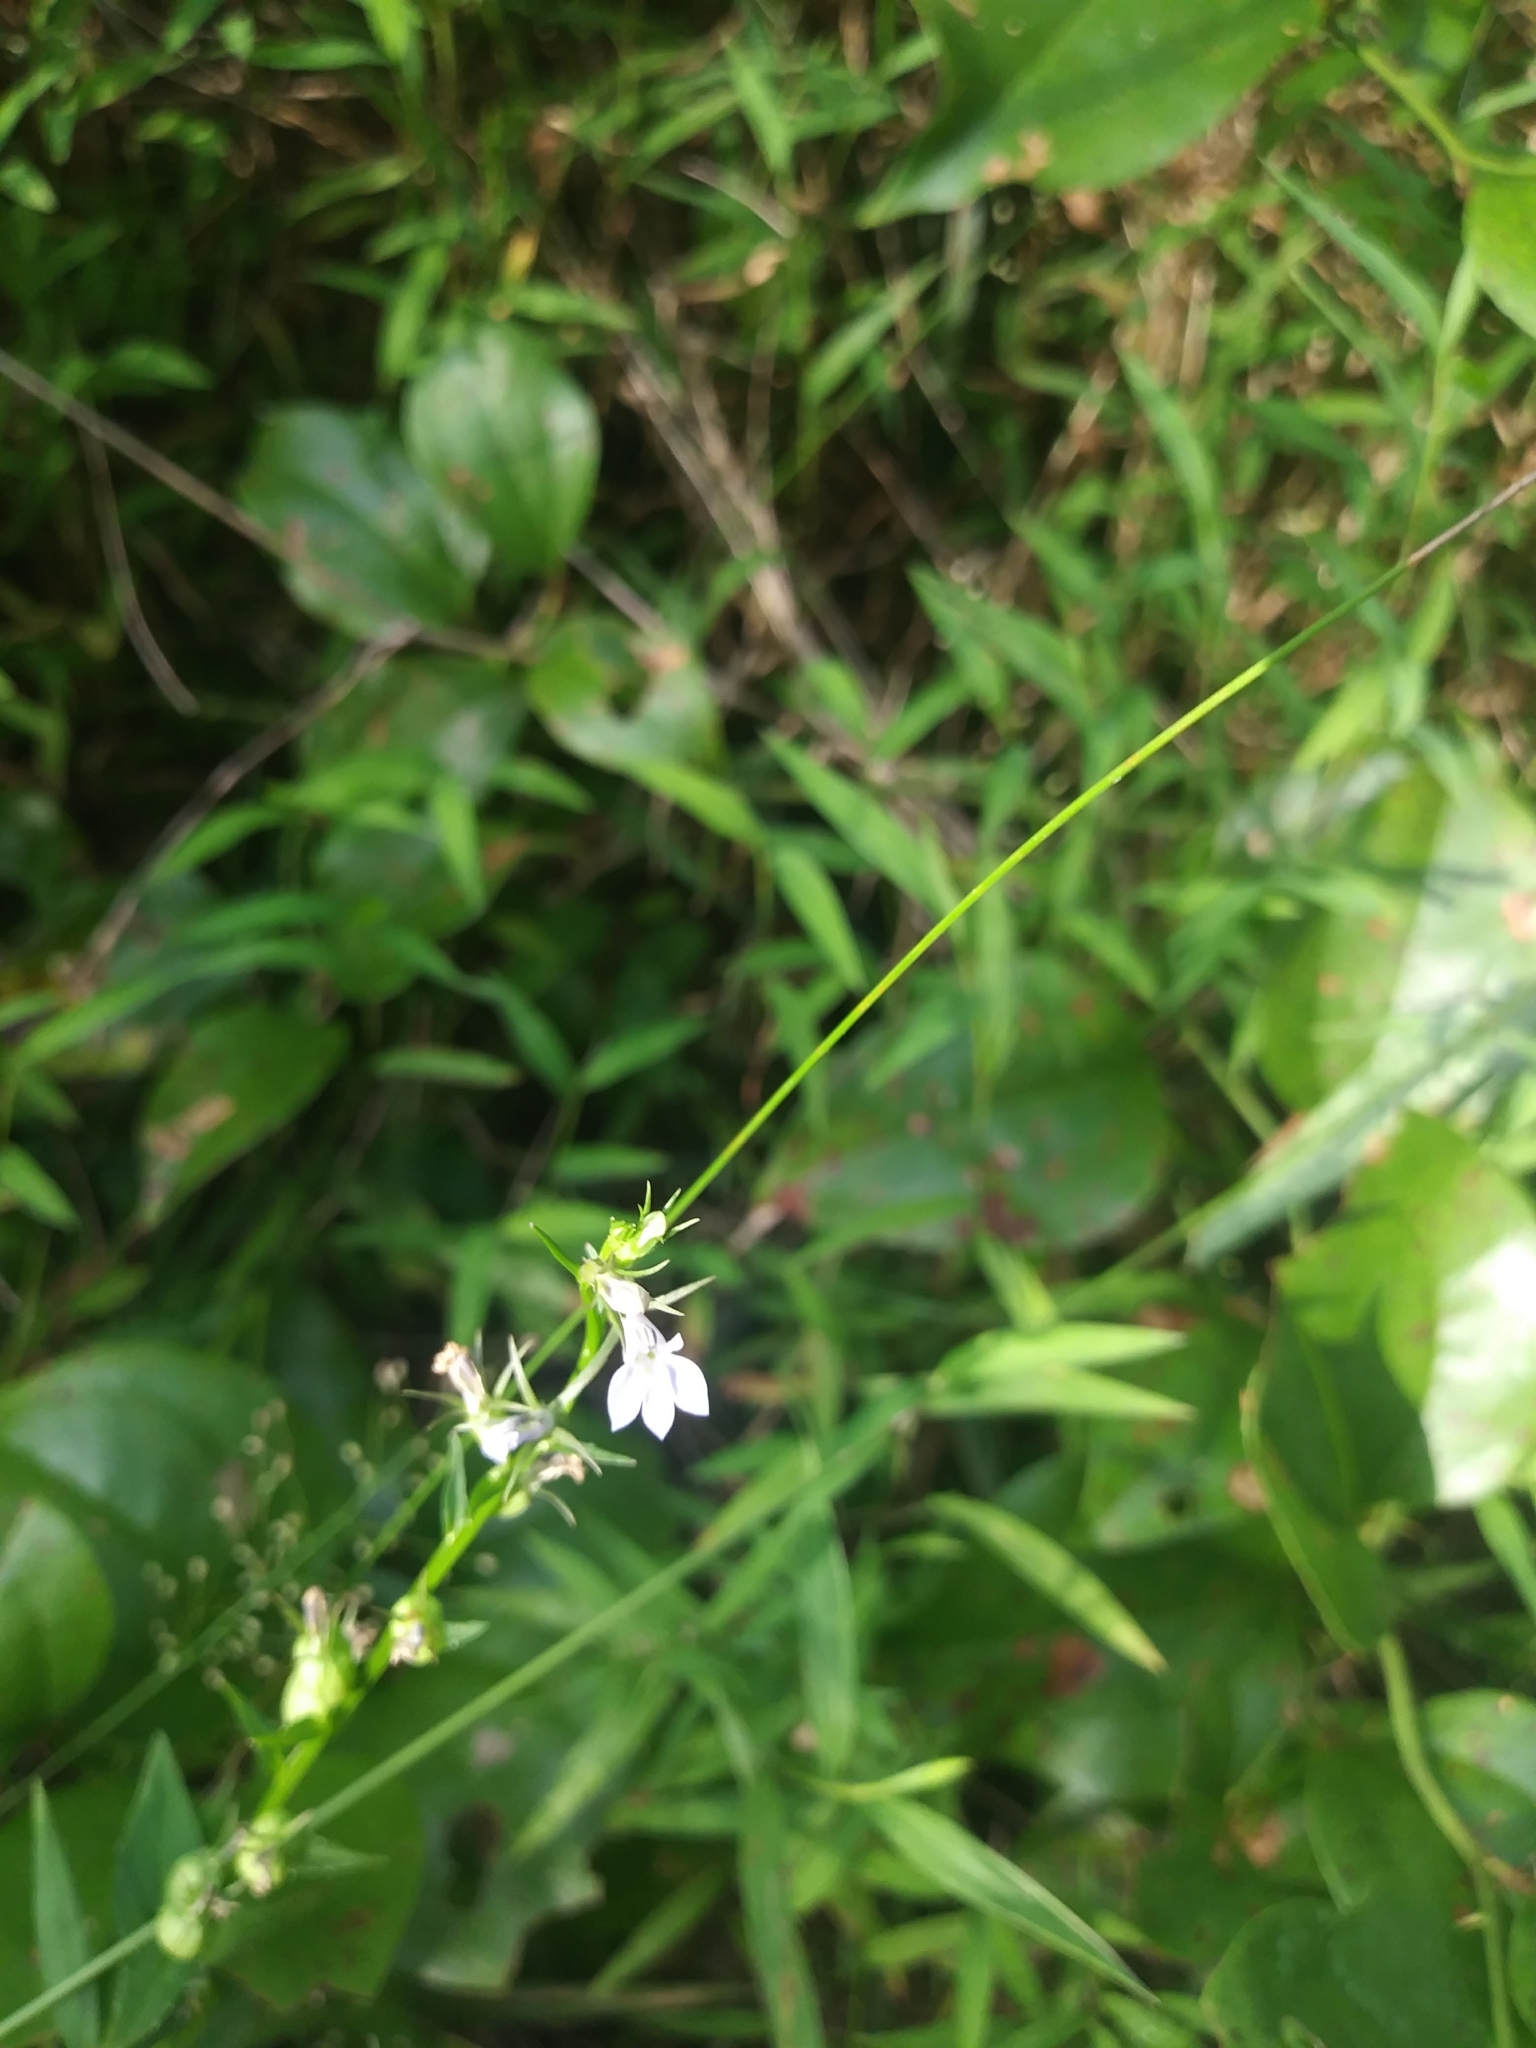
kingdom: Plantae
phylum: Tracheophyta
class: Magnoliopsida
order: Asterales
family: Campanulaceae
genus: Lobelia
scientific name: Lobelia inflata
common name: Indian tobacco
